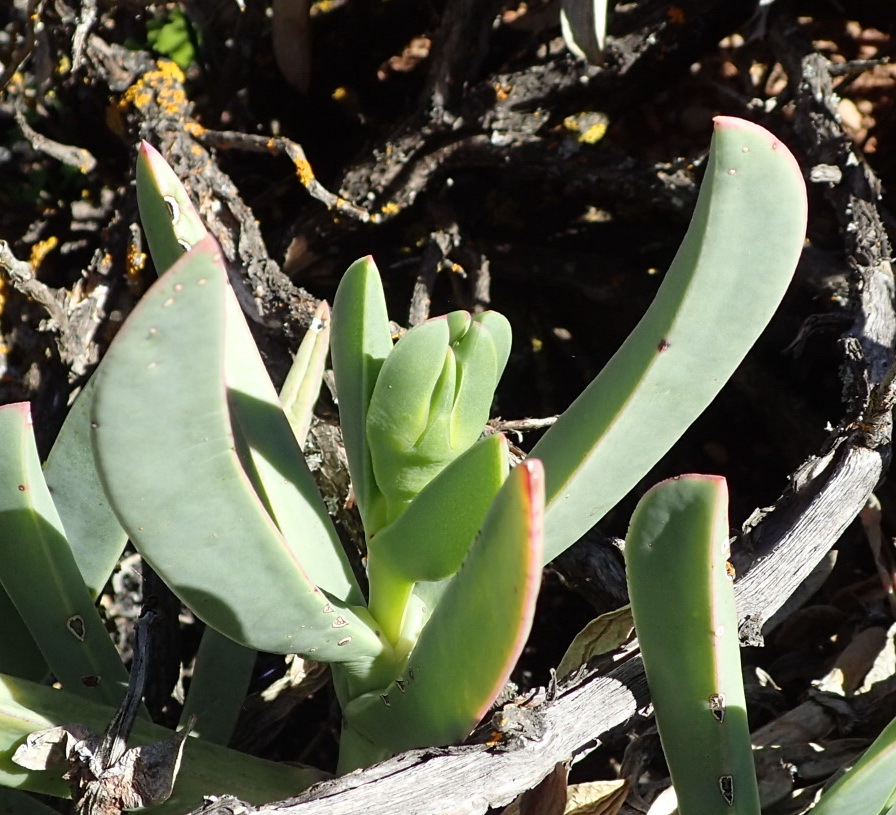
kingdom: Plantae
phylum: Tracheophyta
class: Magnoliopsida
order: Caryophyllales
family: Aizoaceae
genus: Carpobrotus
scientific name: Carpobrotus mellei
